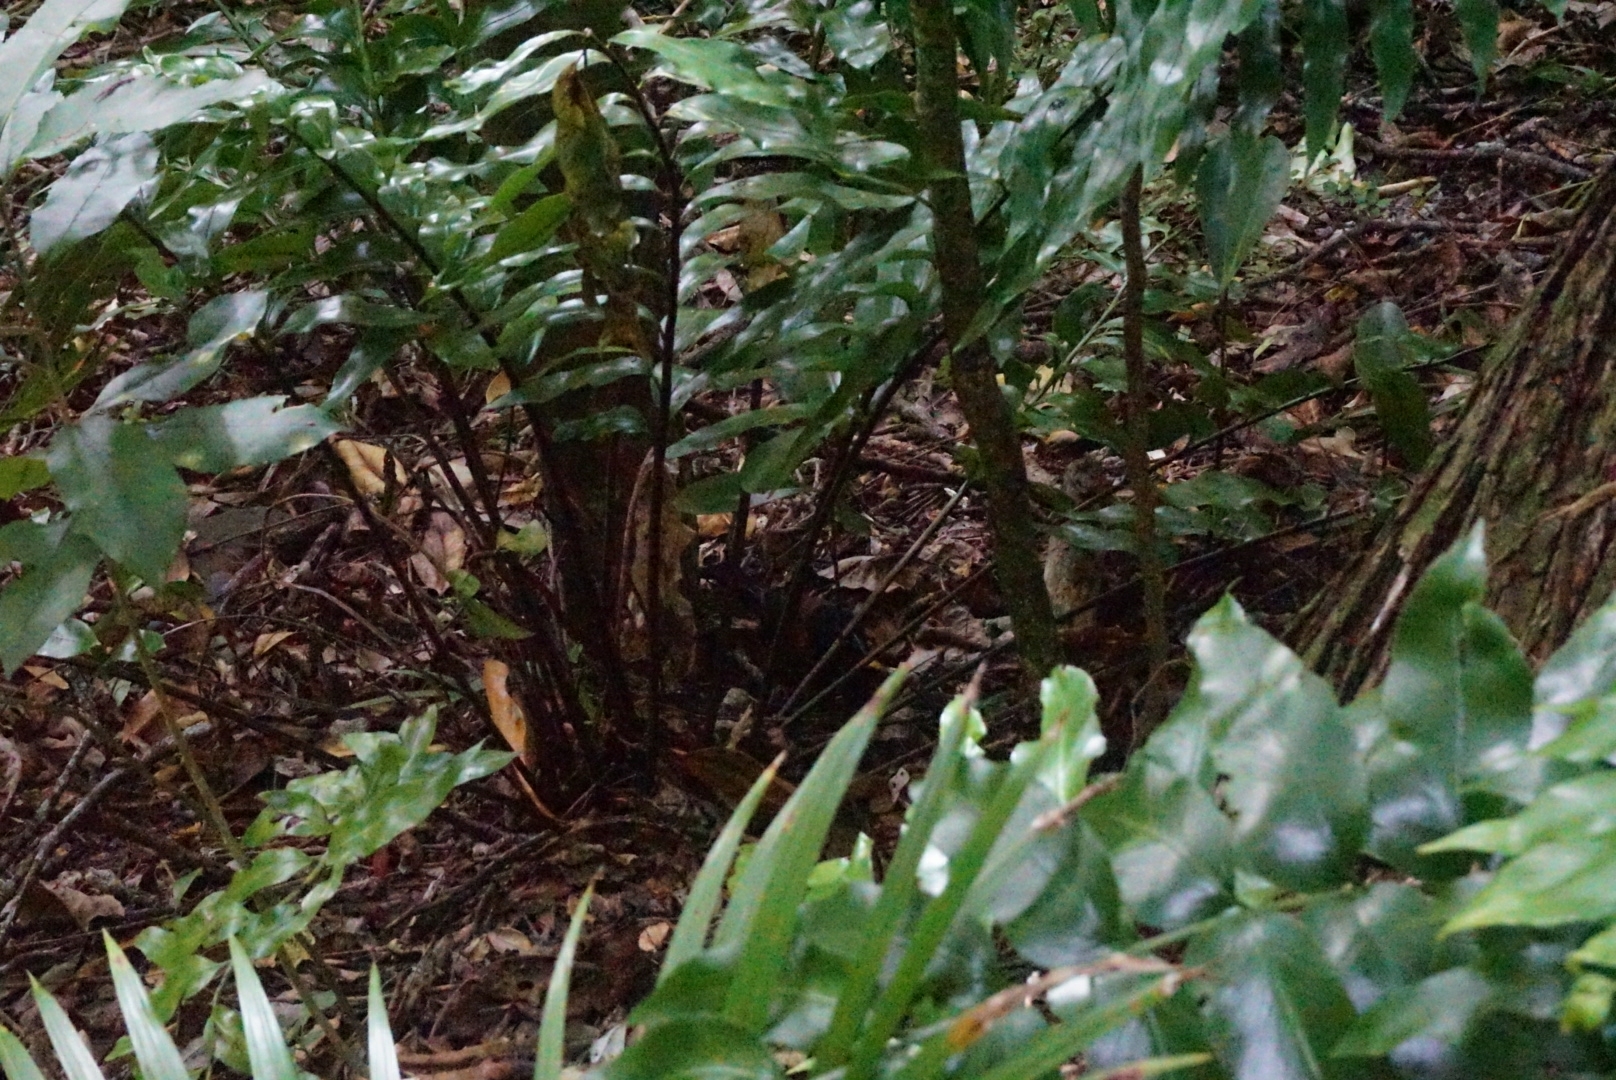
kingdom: Plantae
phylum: Tracheophyta
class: Polypodiopsida
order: Polypodiales
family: Aspleniaceae
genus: Asplenium
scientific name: Asplenium oblongifolium
